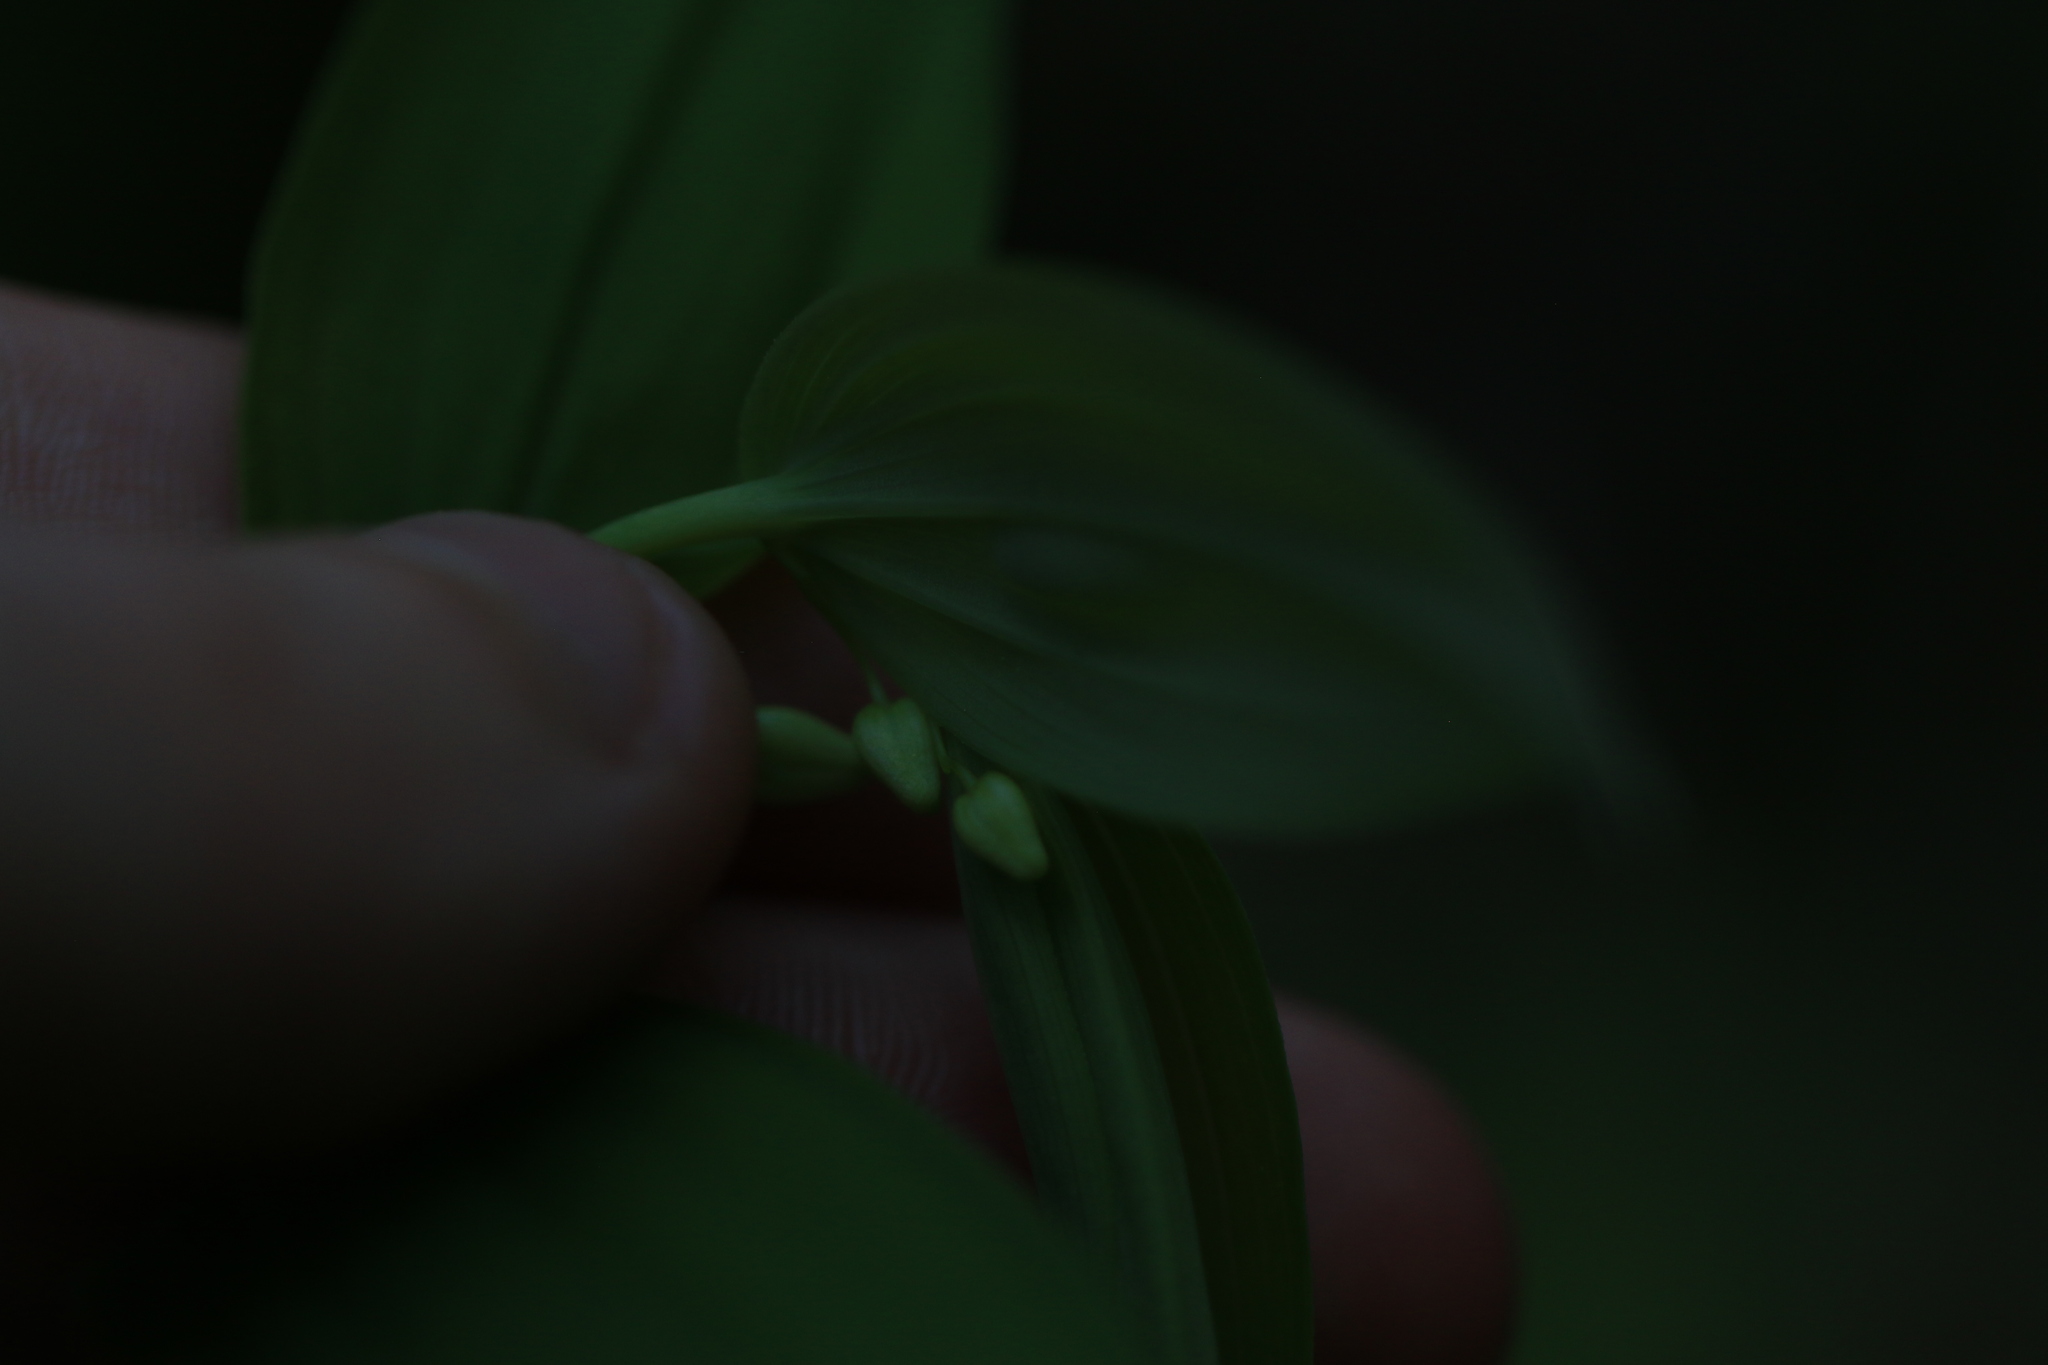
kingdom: Plantae
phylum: Tracheophyta
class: Liliopsida
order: Liliales
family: Liliaceae
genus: Streptopus
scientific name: Streptopus amplexifolius
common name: Clasp twisted stalk
